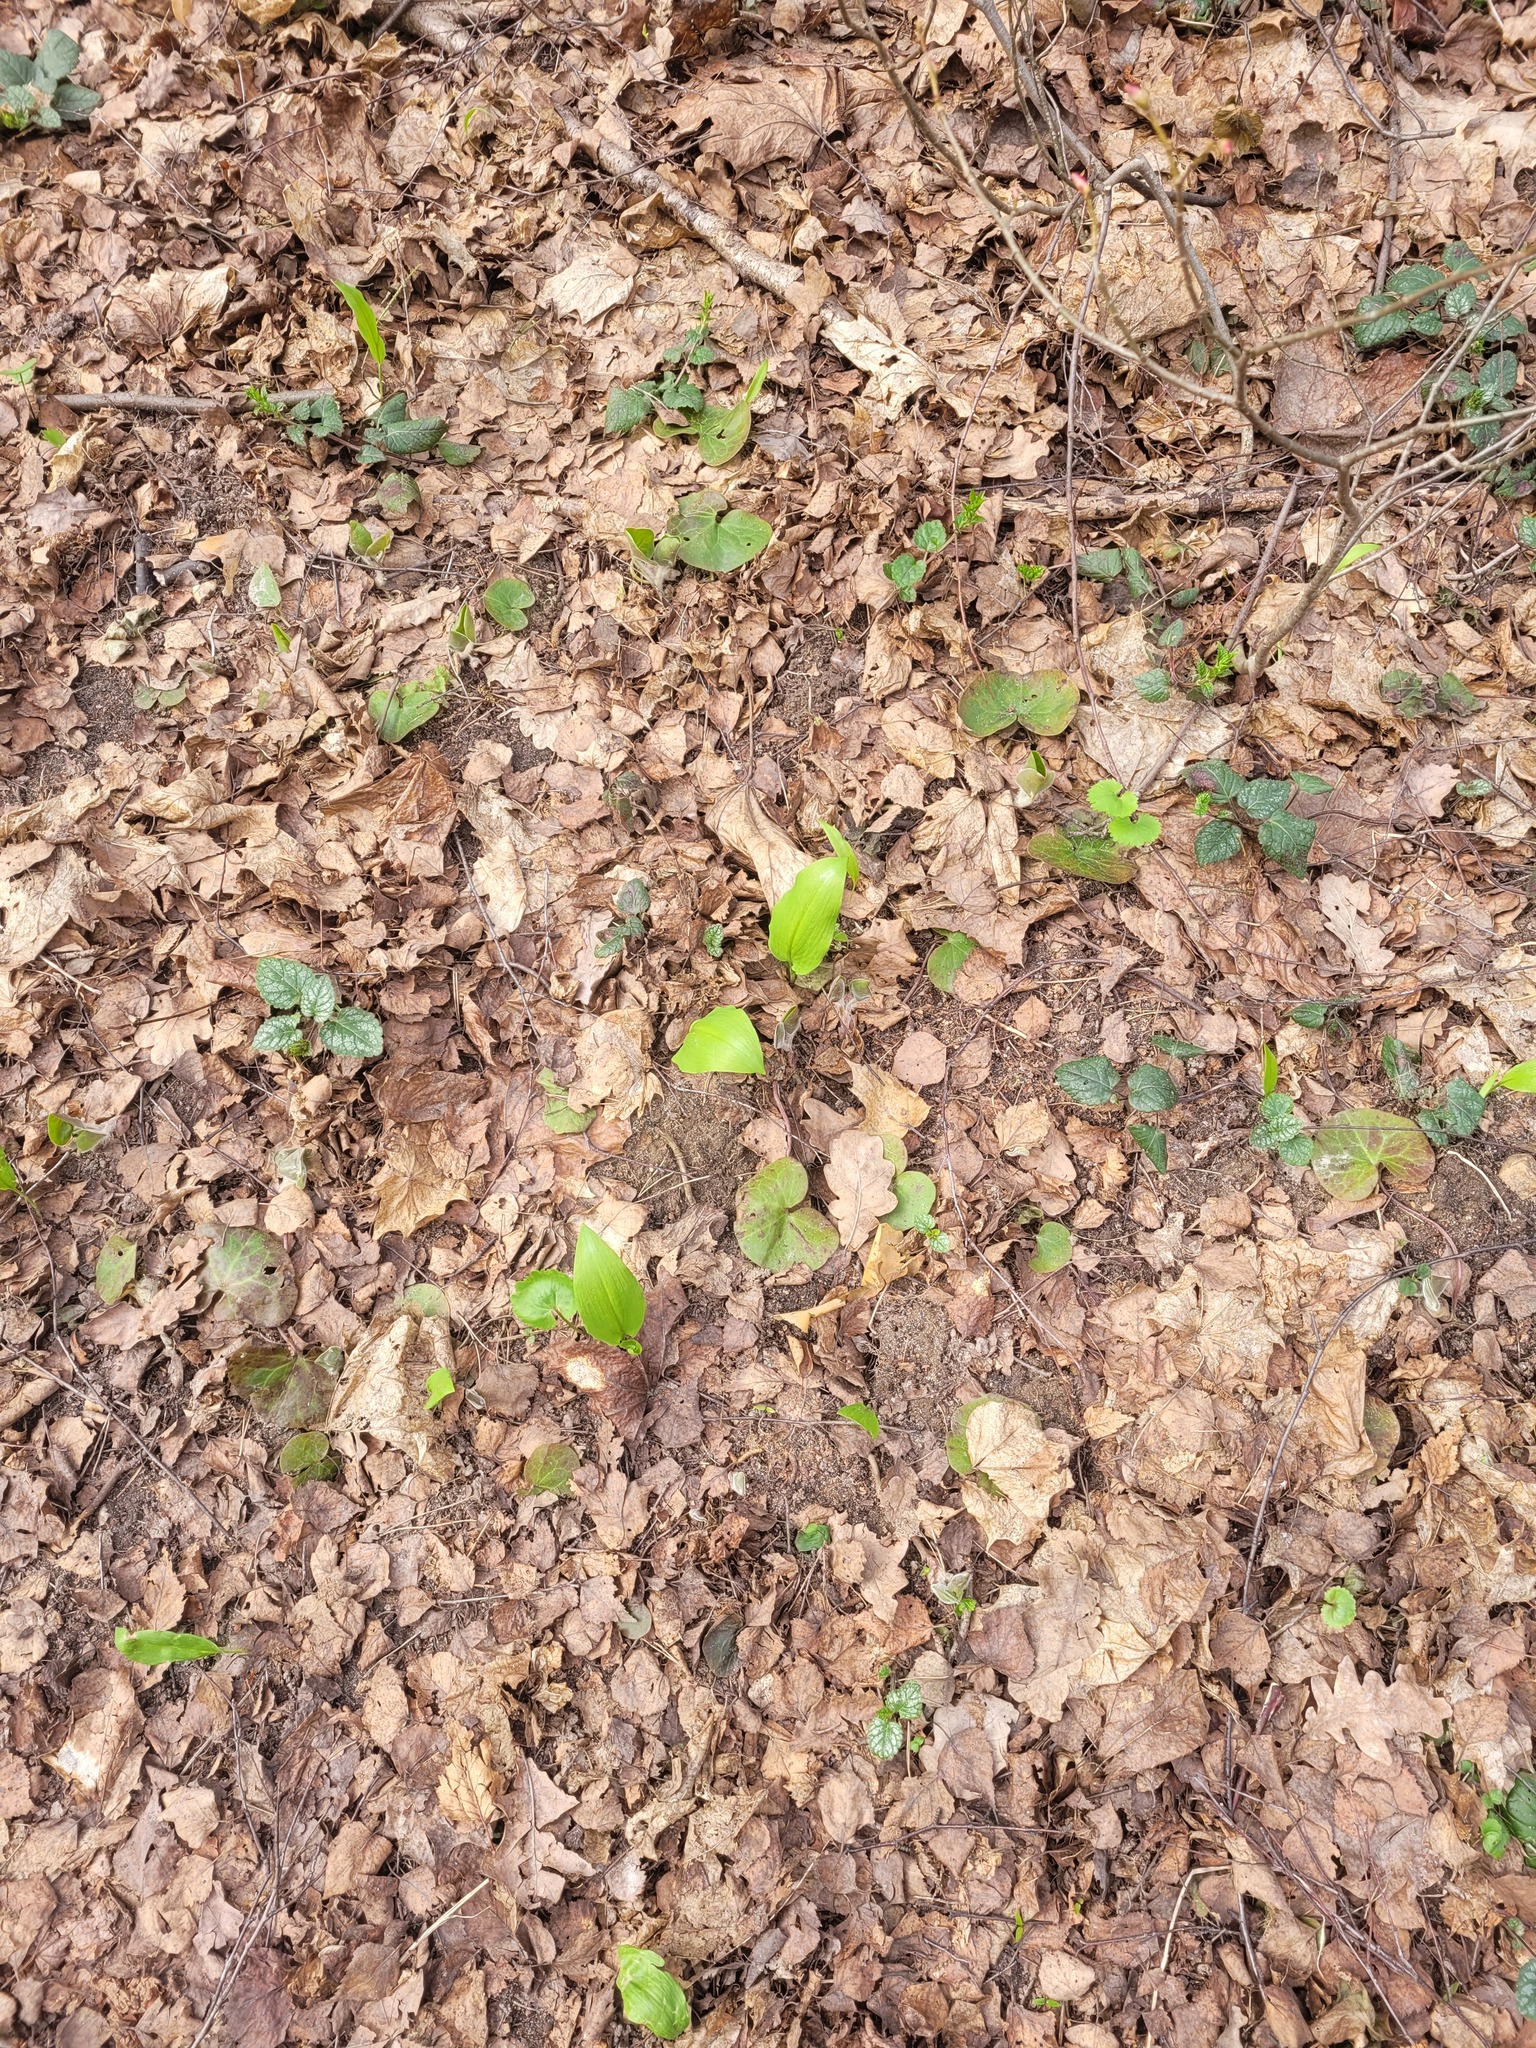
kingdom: Plantae
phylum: Tracheophyta
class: Liliopsida
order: Asparagales
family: Amaryllidaceae
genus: Allium
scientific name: Allium ursinum
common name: Ramsons
